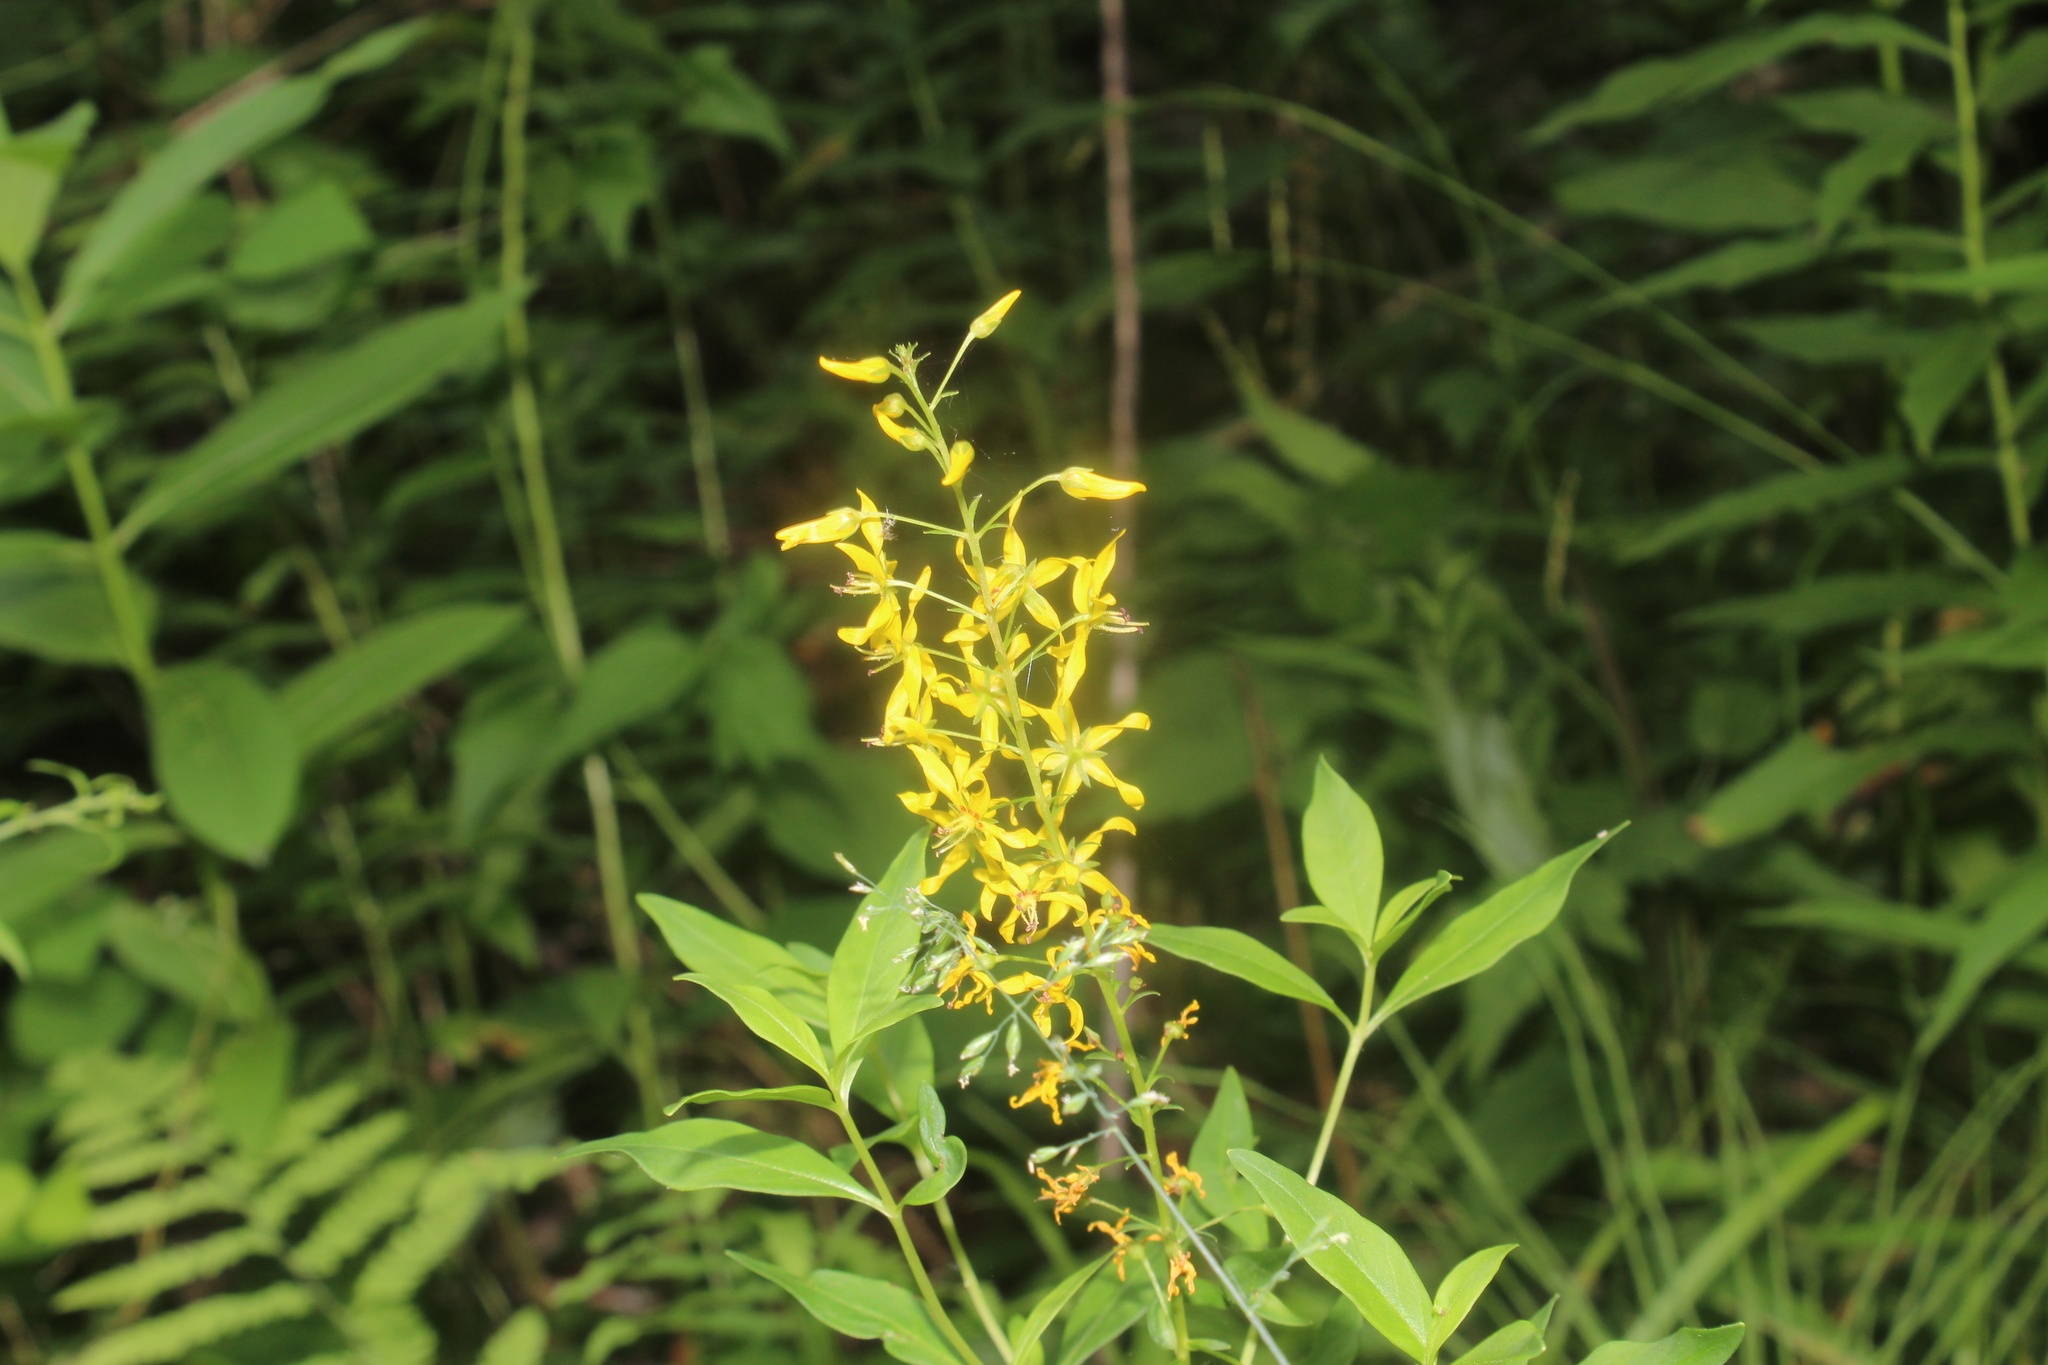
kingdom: Plantae
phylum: Tracheophyta
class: Magnoliopsida
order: Ericales
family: Primulaceae
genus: Lysimachia
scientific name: Lysimachia terrestris
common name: Lake loosestrife
